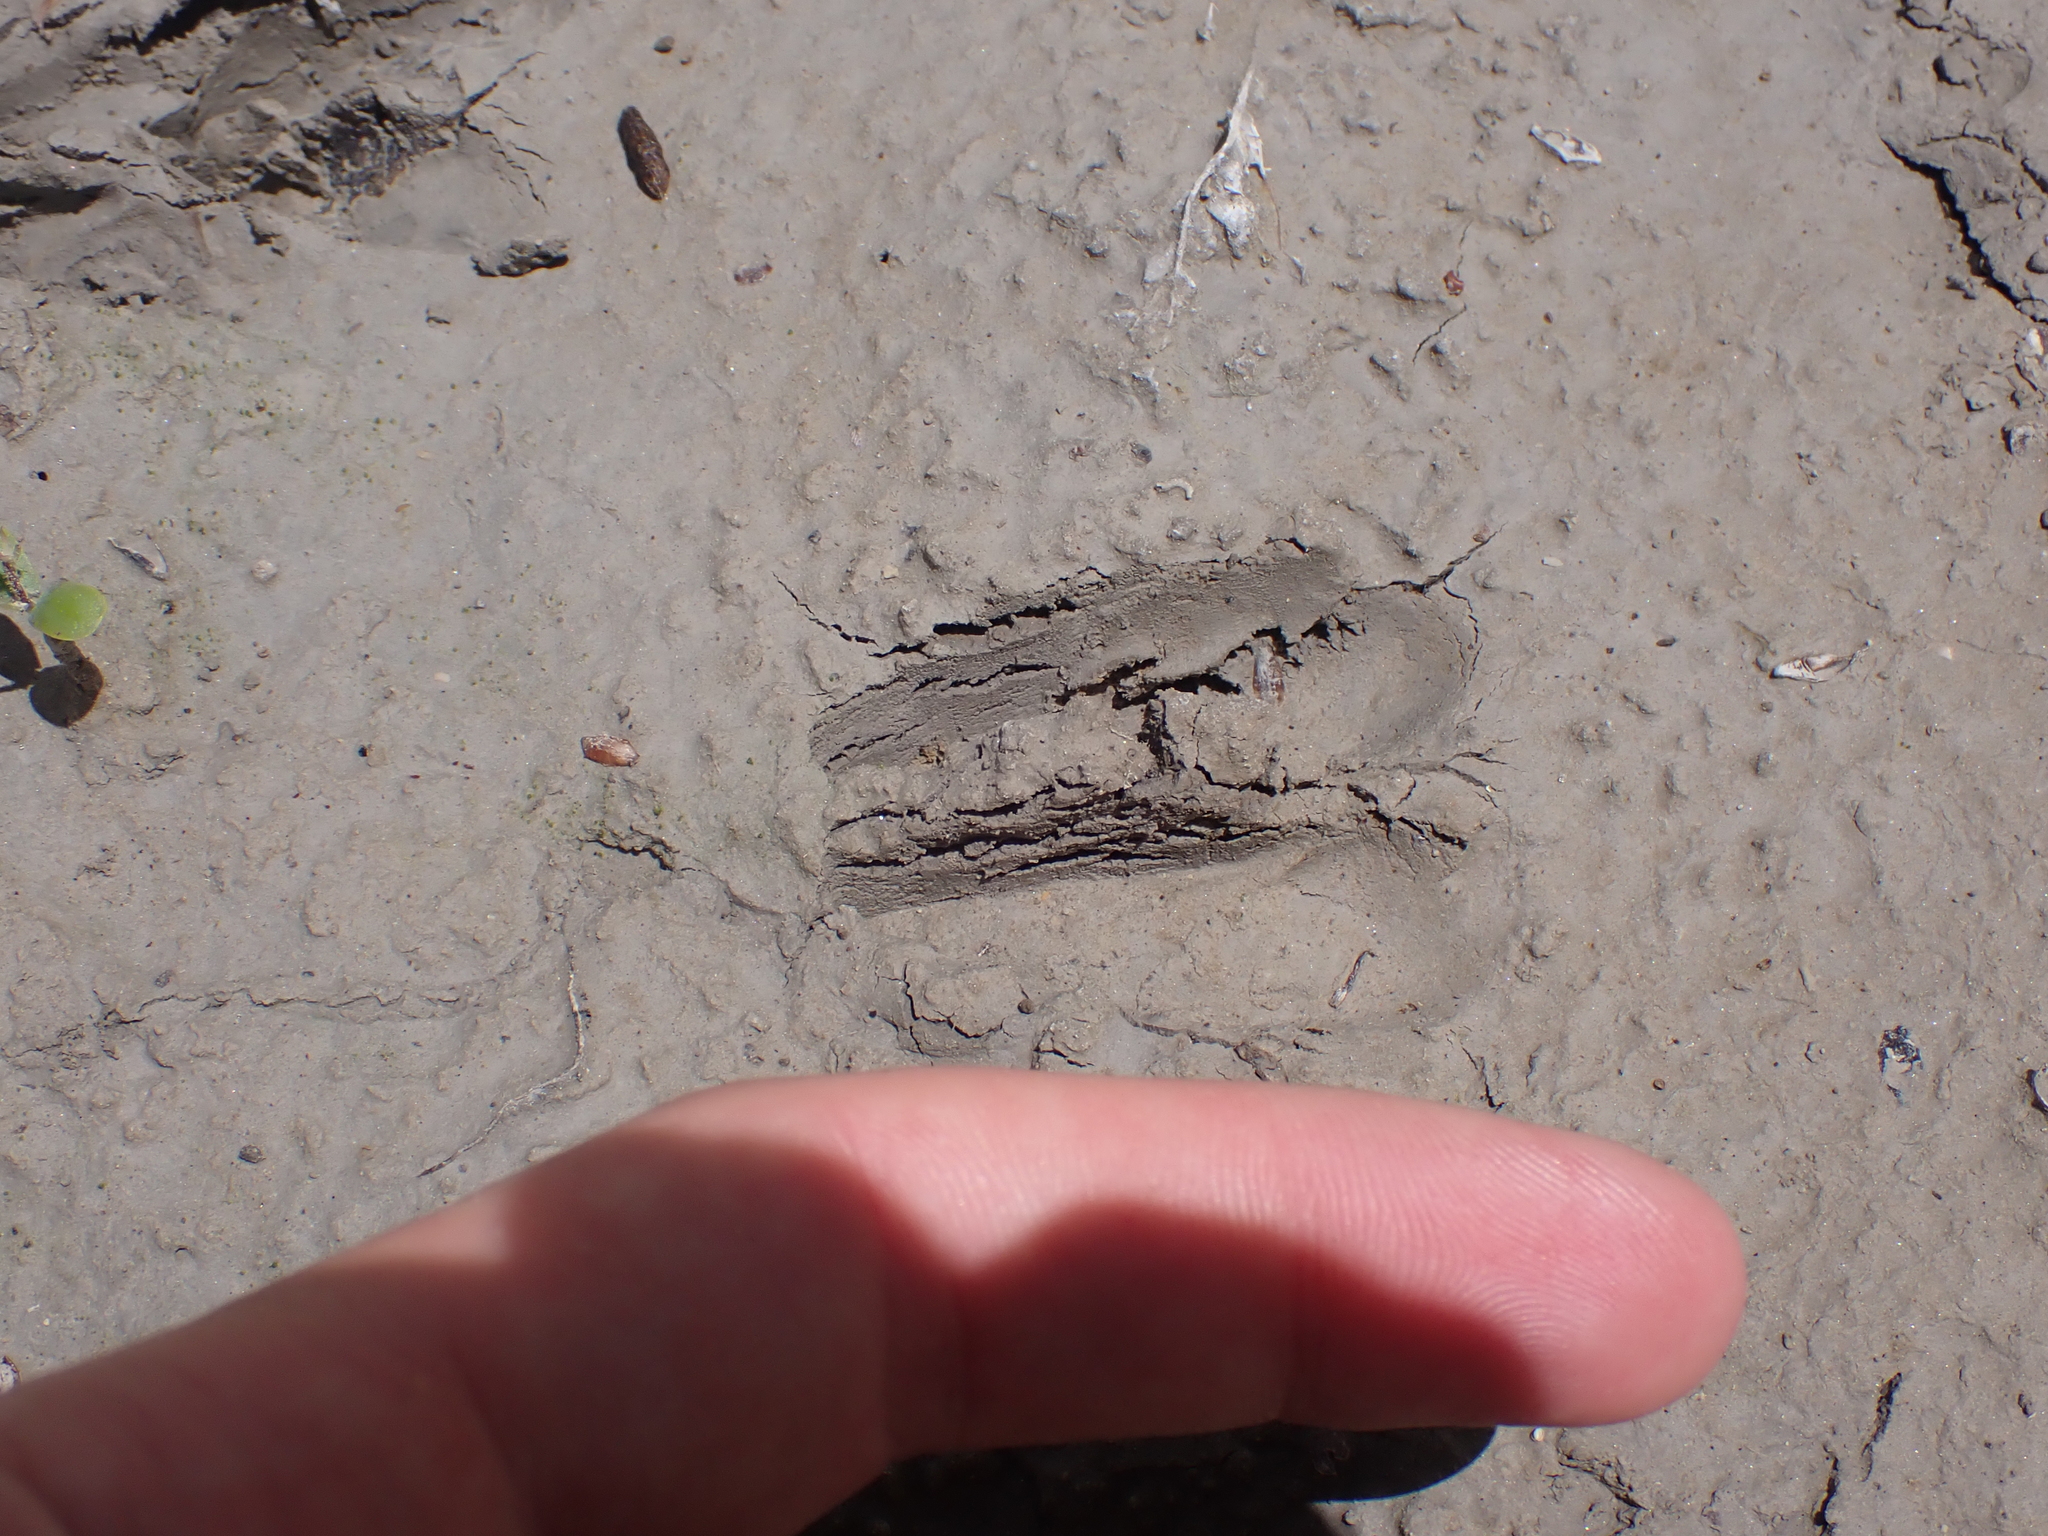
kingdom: Animalia
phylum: Chordata
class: Mammalia
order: Artiodactyla
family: Cervidae
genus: Capreolus
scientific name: Capreolus capreolus
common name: Western roe deer
